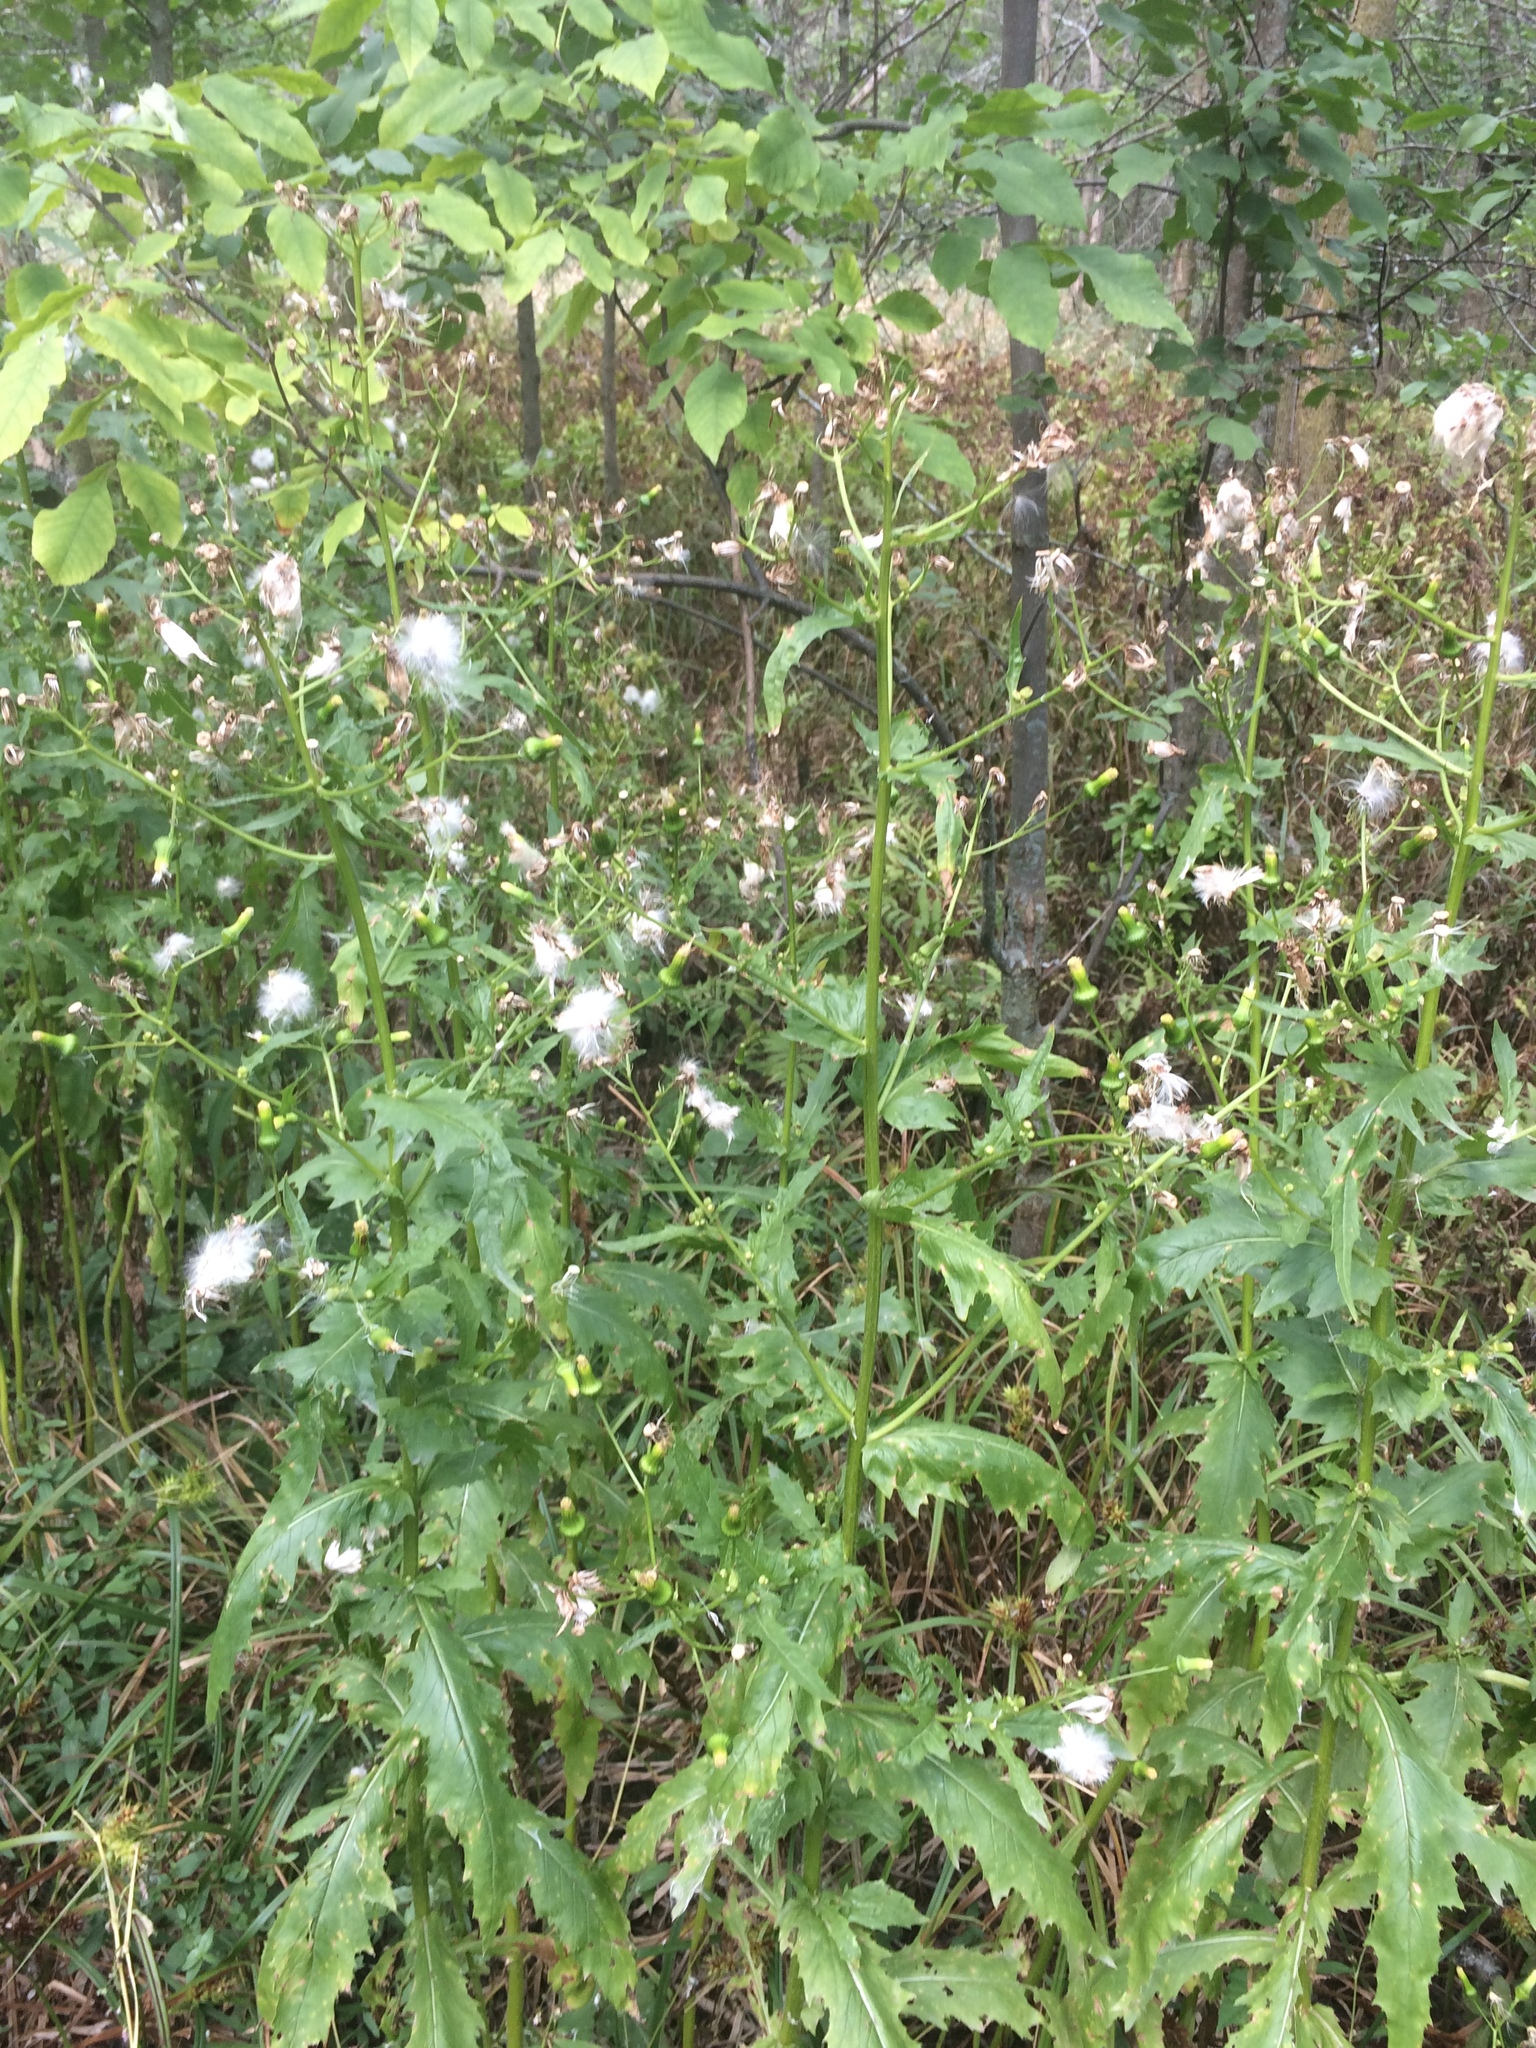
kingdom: Plantae
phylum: Tracheophyta
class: Magnoliopsida
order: Asterales
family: Asteraceae
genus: Erechtites
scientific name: Erechtites hieraciifolius
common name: American burnweed
